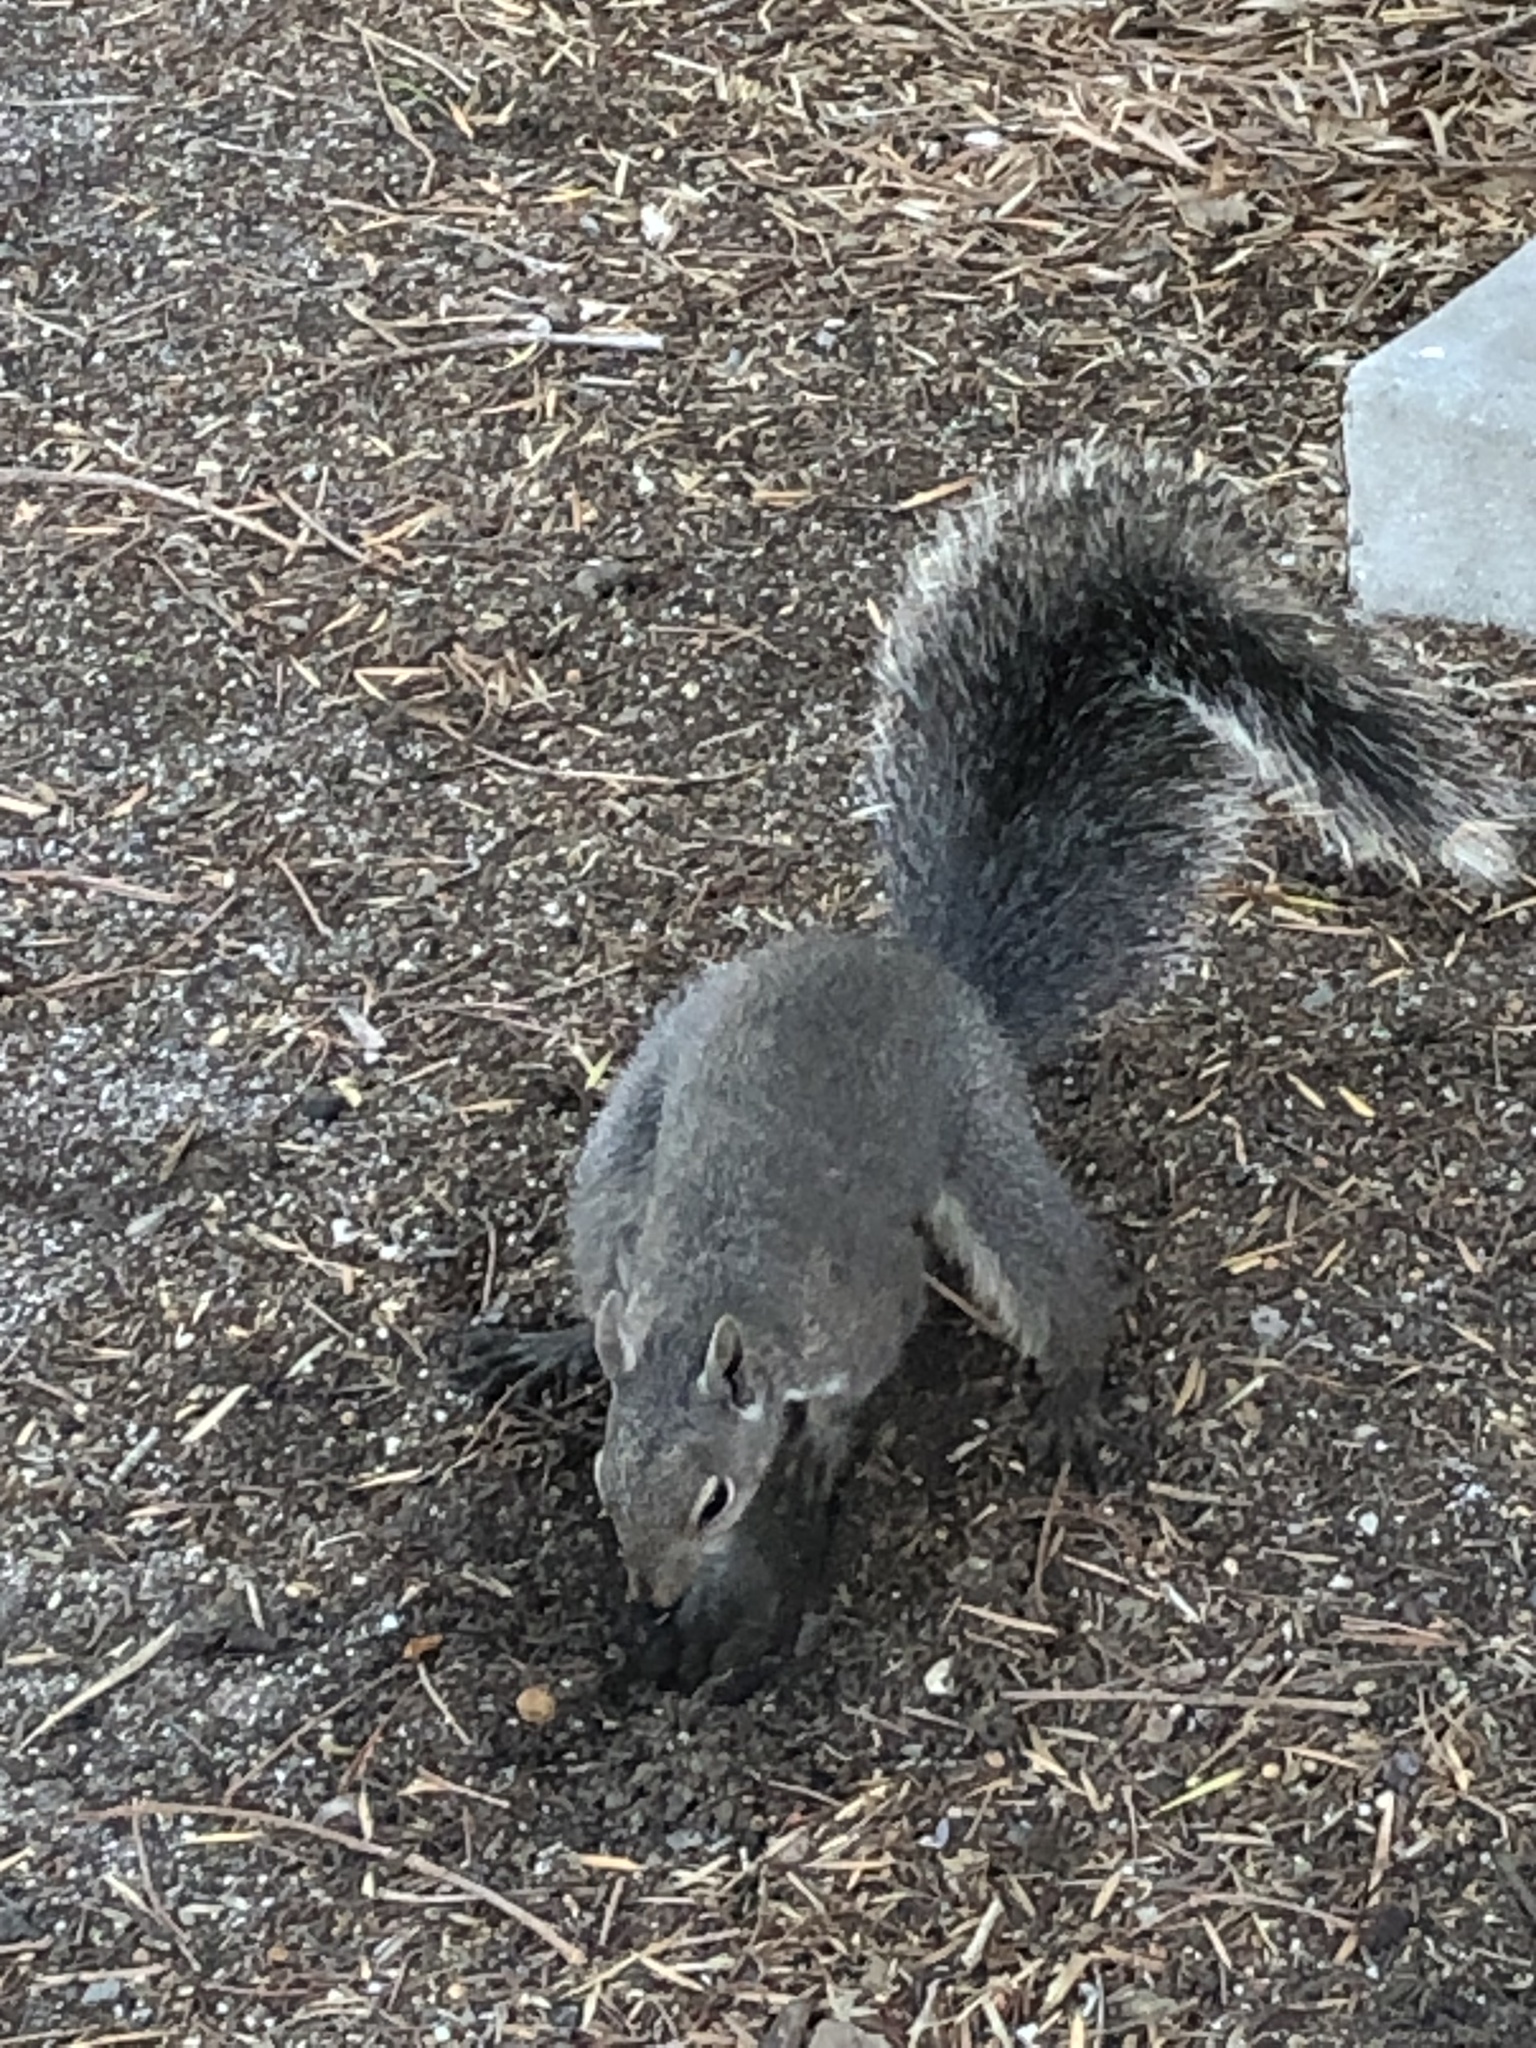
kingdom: Animalia
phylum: Chordata
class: Mammalia
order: Rodentia
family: Sciuridae
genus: Sciurus
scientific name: Sciurus griseus
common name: Western gray squirrel
